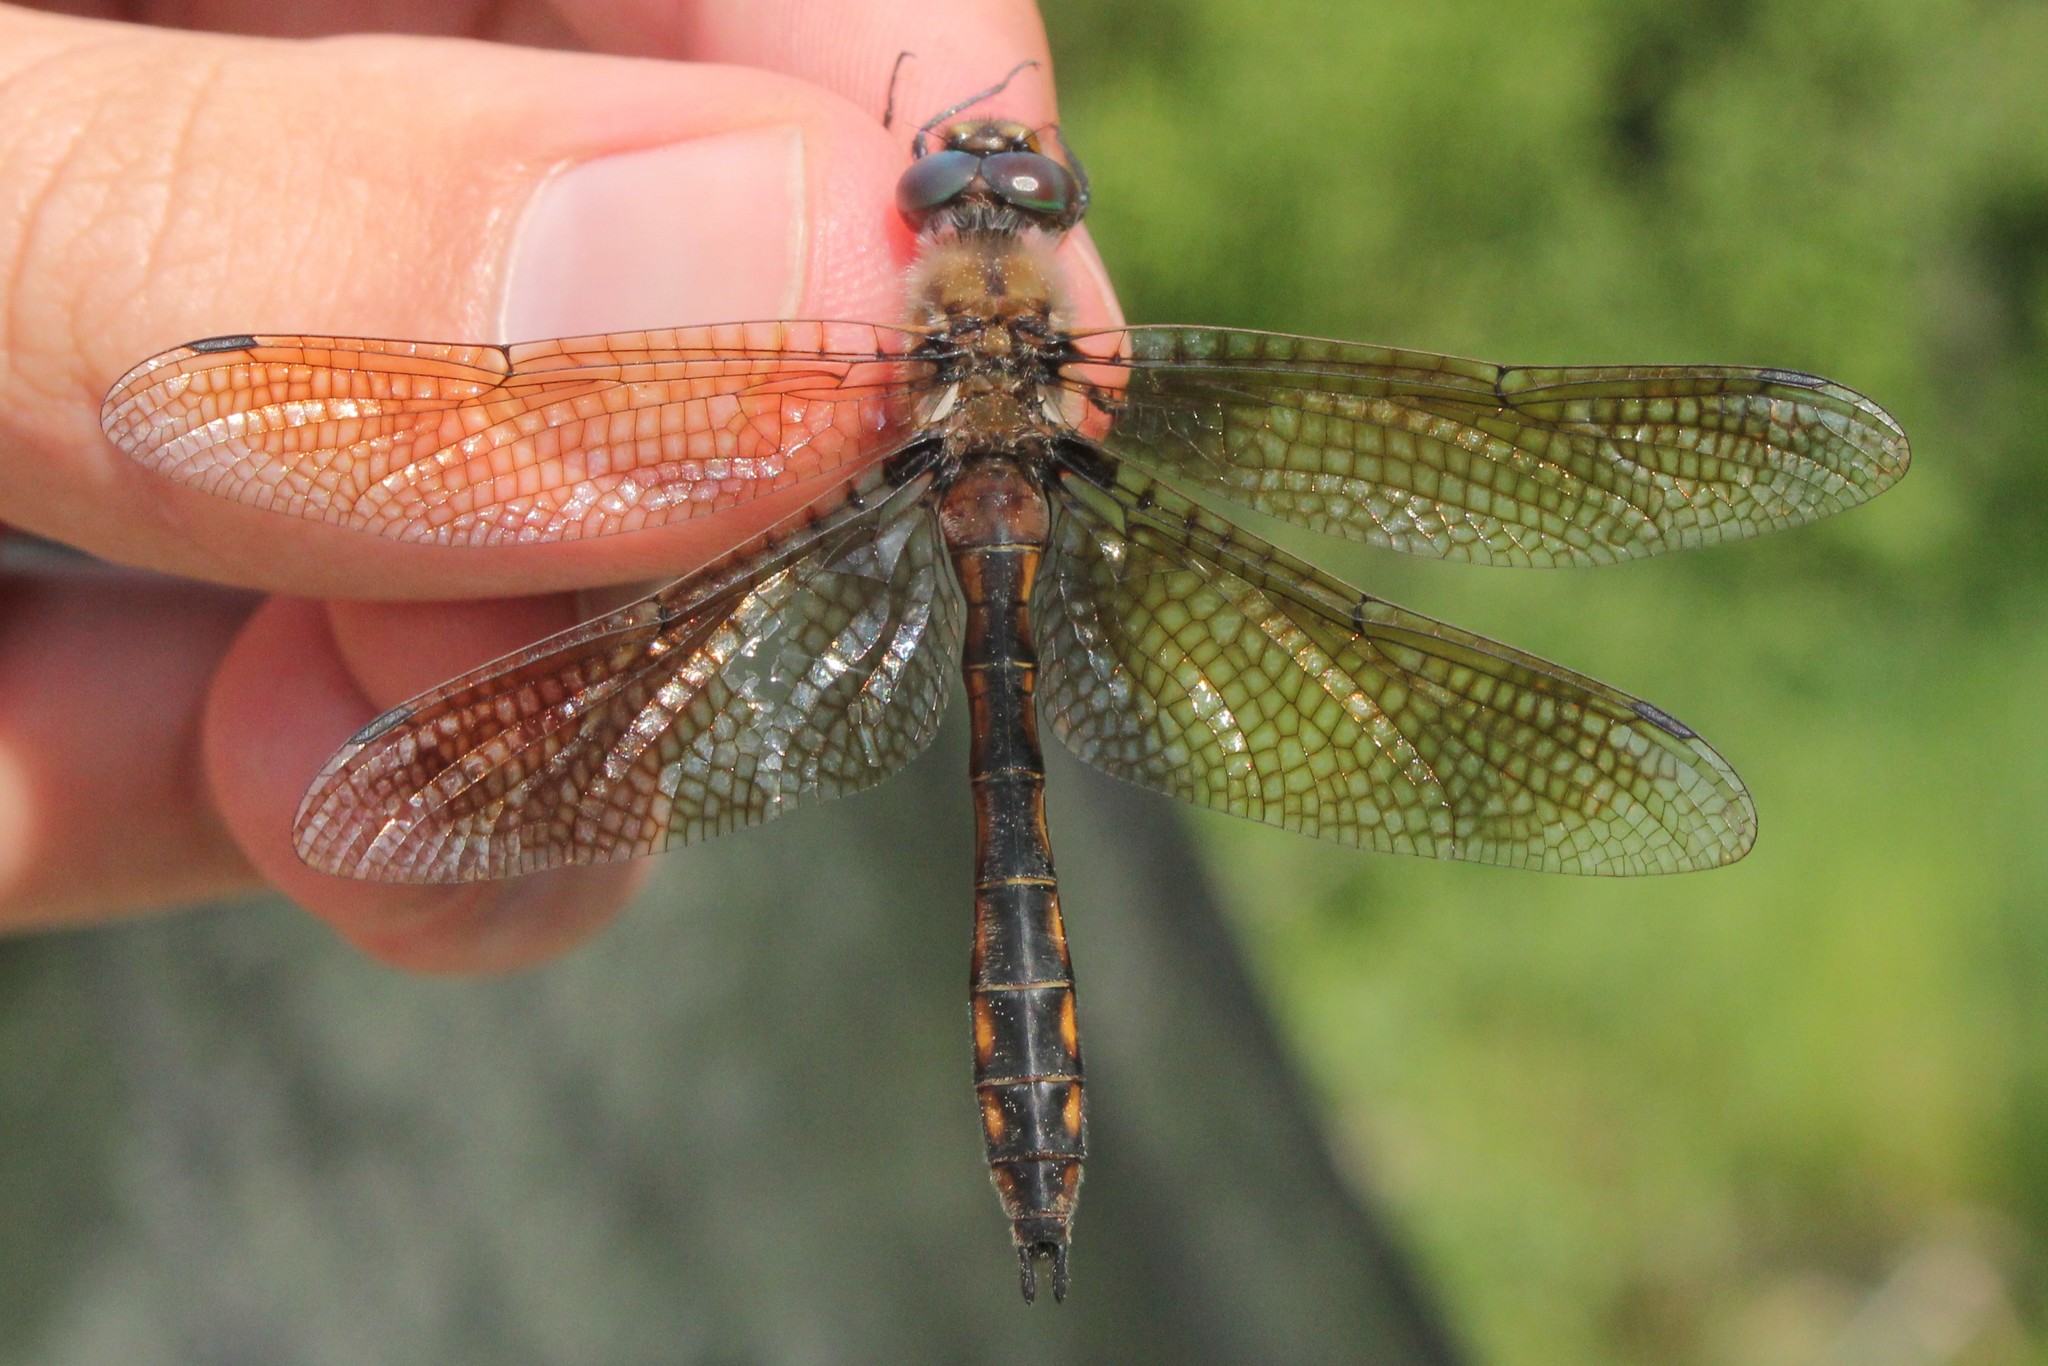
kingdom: Animalia
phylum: Arthropoda
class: Insecta
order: Odonata
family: Corduliidae
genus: Epitheca
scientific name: Epitheca canis
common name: Beaverpond baskettail
